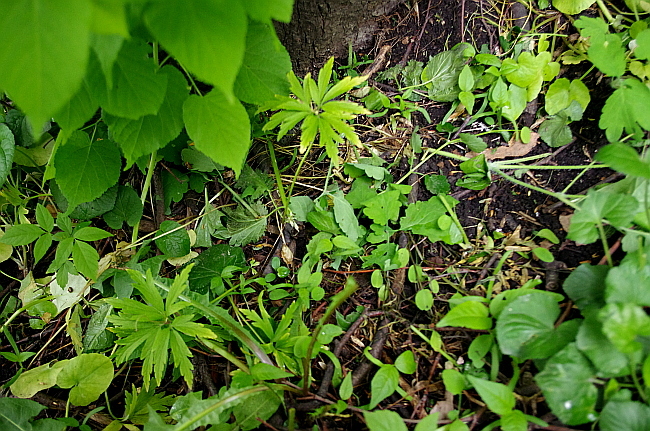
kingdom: Plantae
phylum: Tracheophyta
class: Magnoliopsida
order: Ranunculales
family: Ranunculaceae
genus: Anemone
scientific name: Anemone ranunculoides
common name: Yellow anemone
